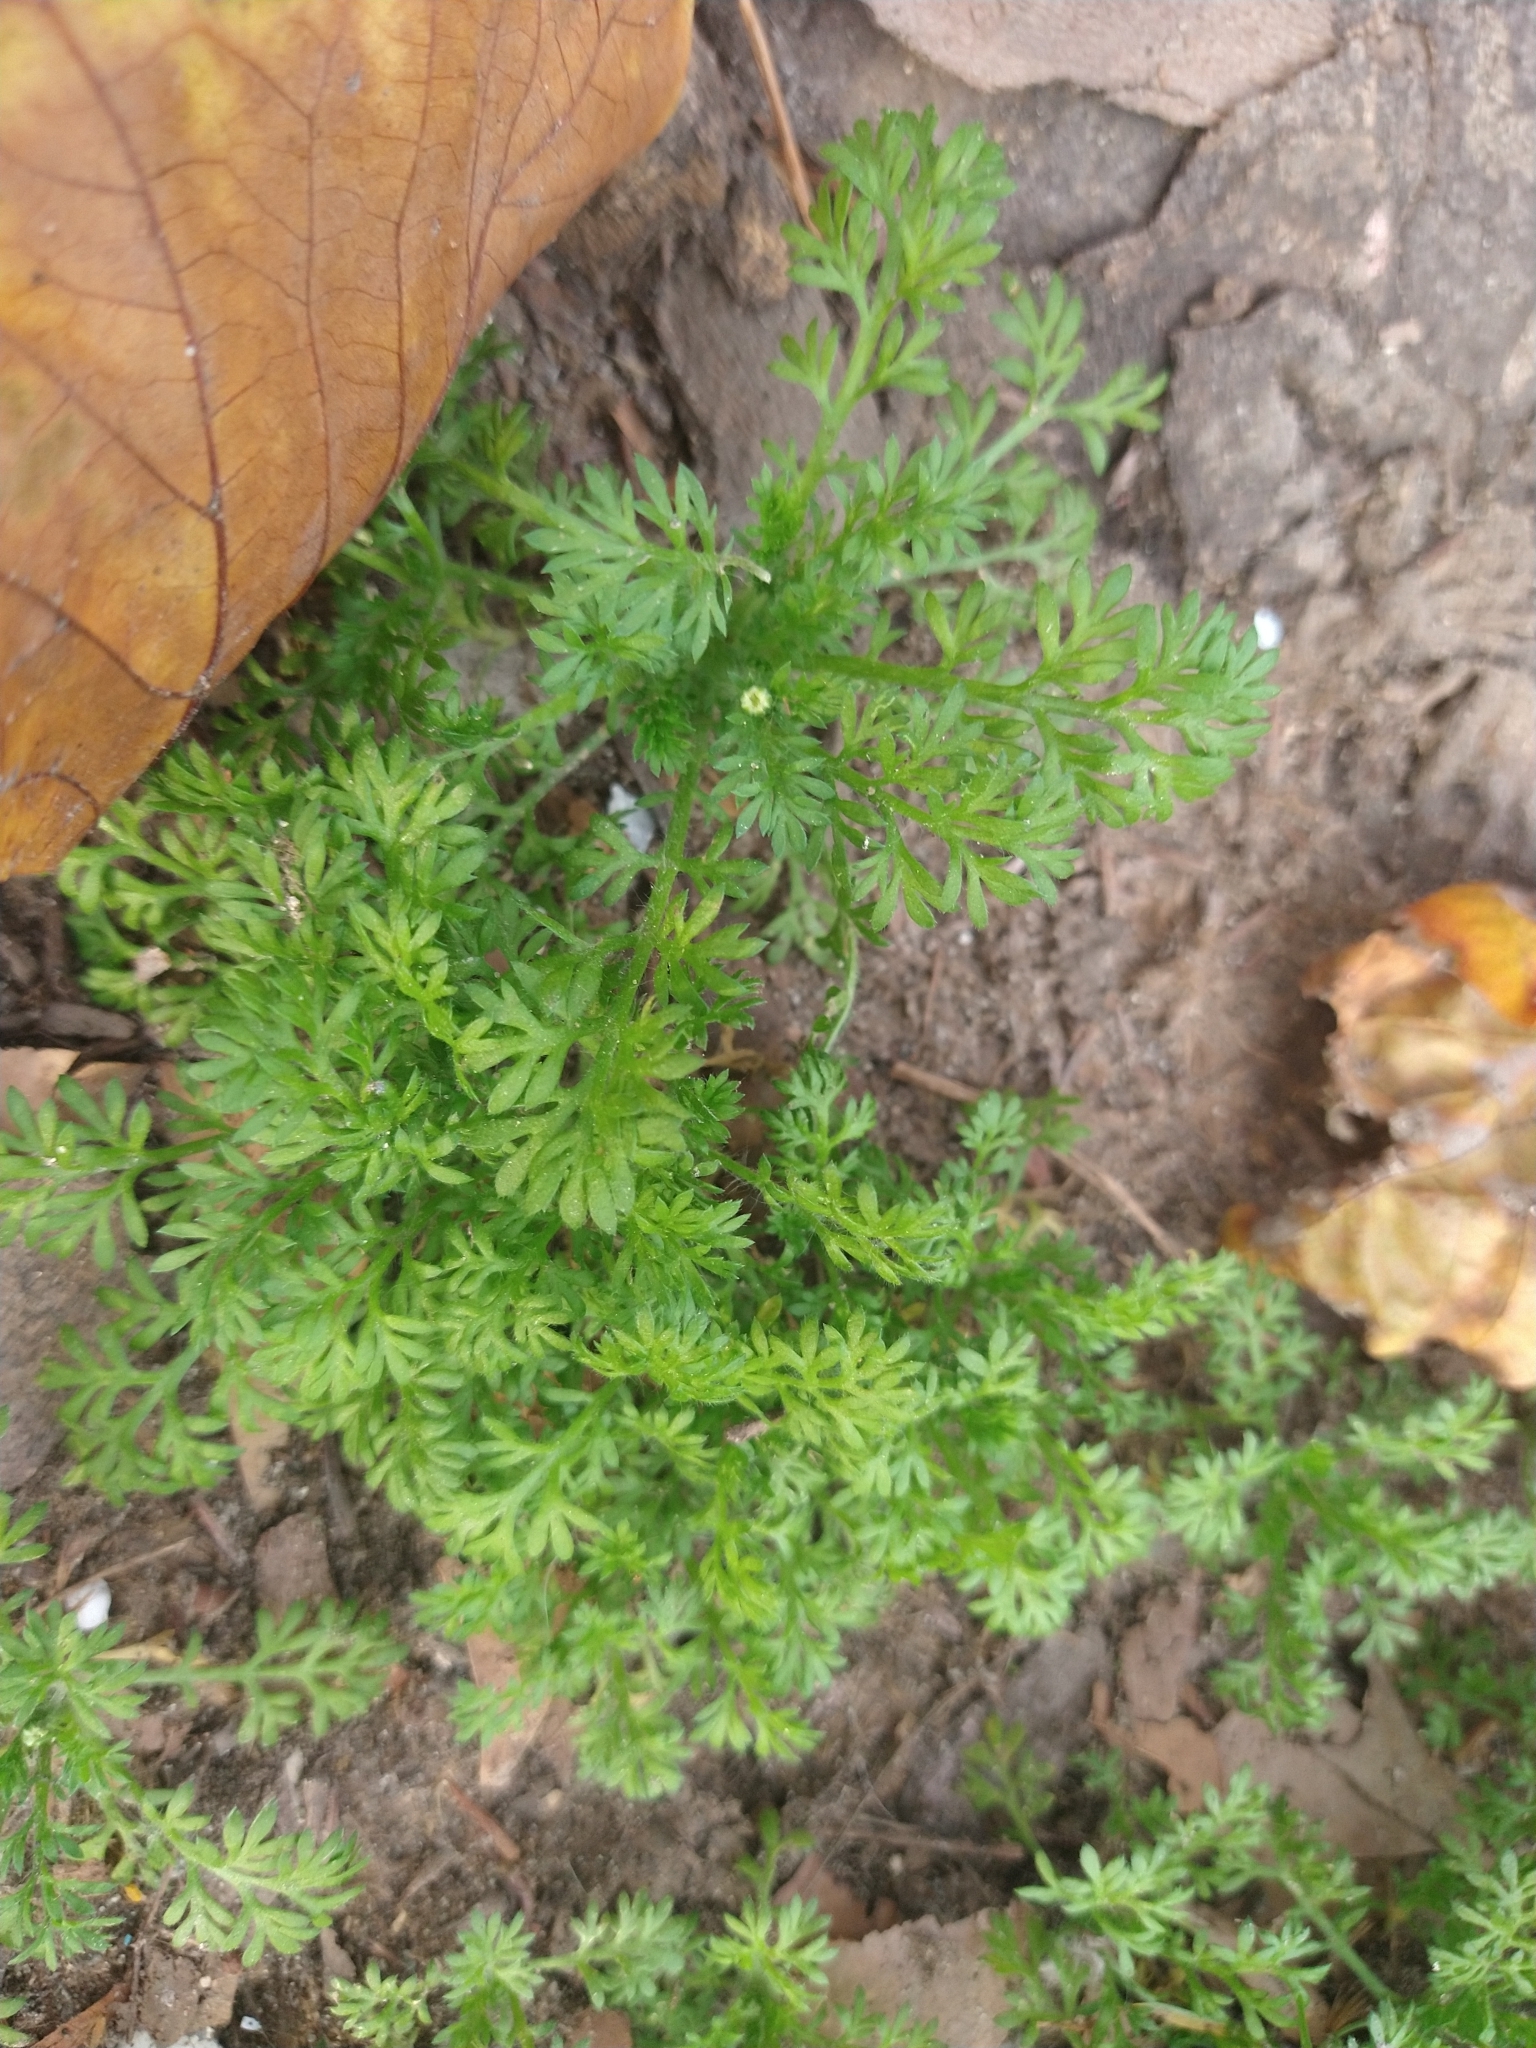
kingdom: Plantae
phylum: Tracheophyta
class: Magnoliopsida
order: Asterales
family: Asteraceae
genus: Cotula
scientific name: Cotula australis
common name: Australian waterbuttons
